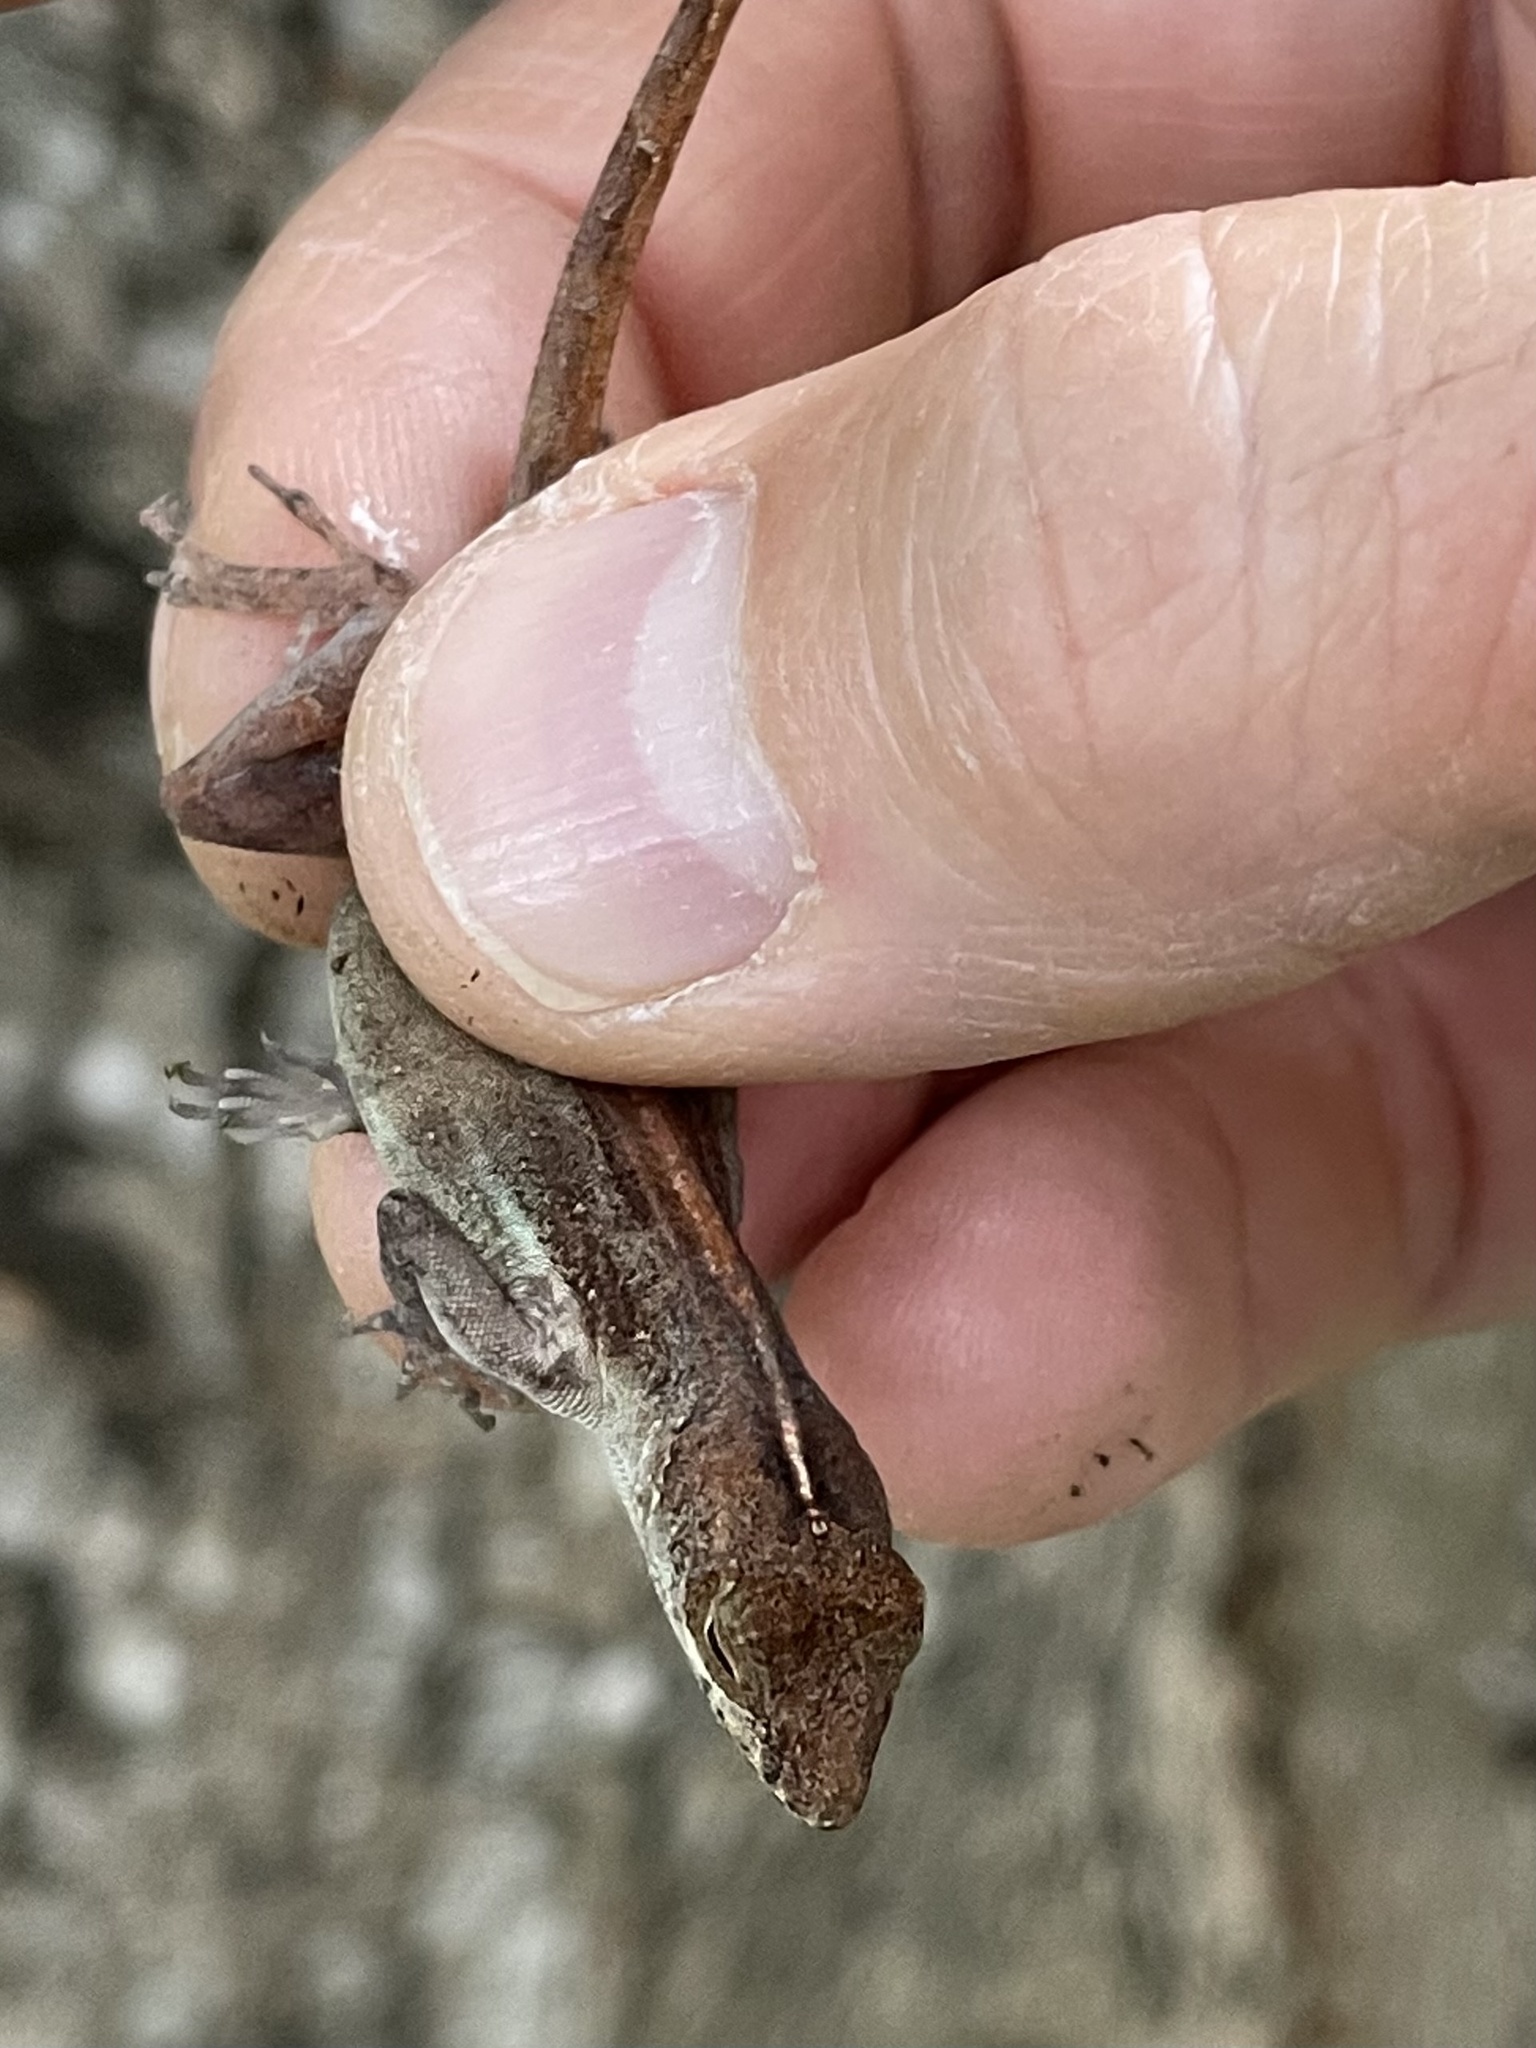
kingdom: Animalia
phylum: Chordata
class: Squamata
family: Dactyloidae
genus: Anolis
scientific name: Anolis cristatellus
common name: Crested anole
